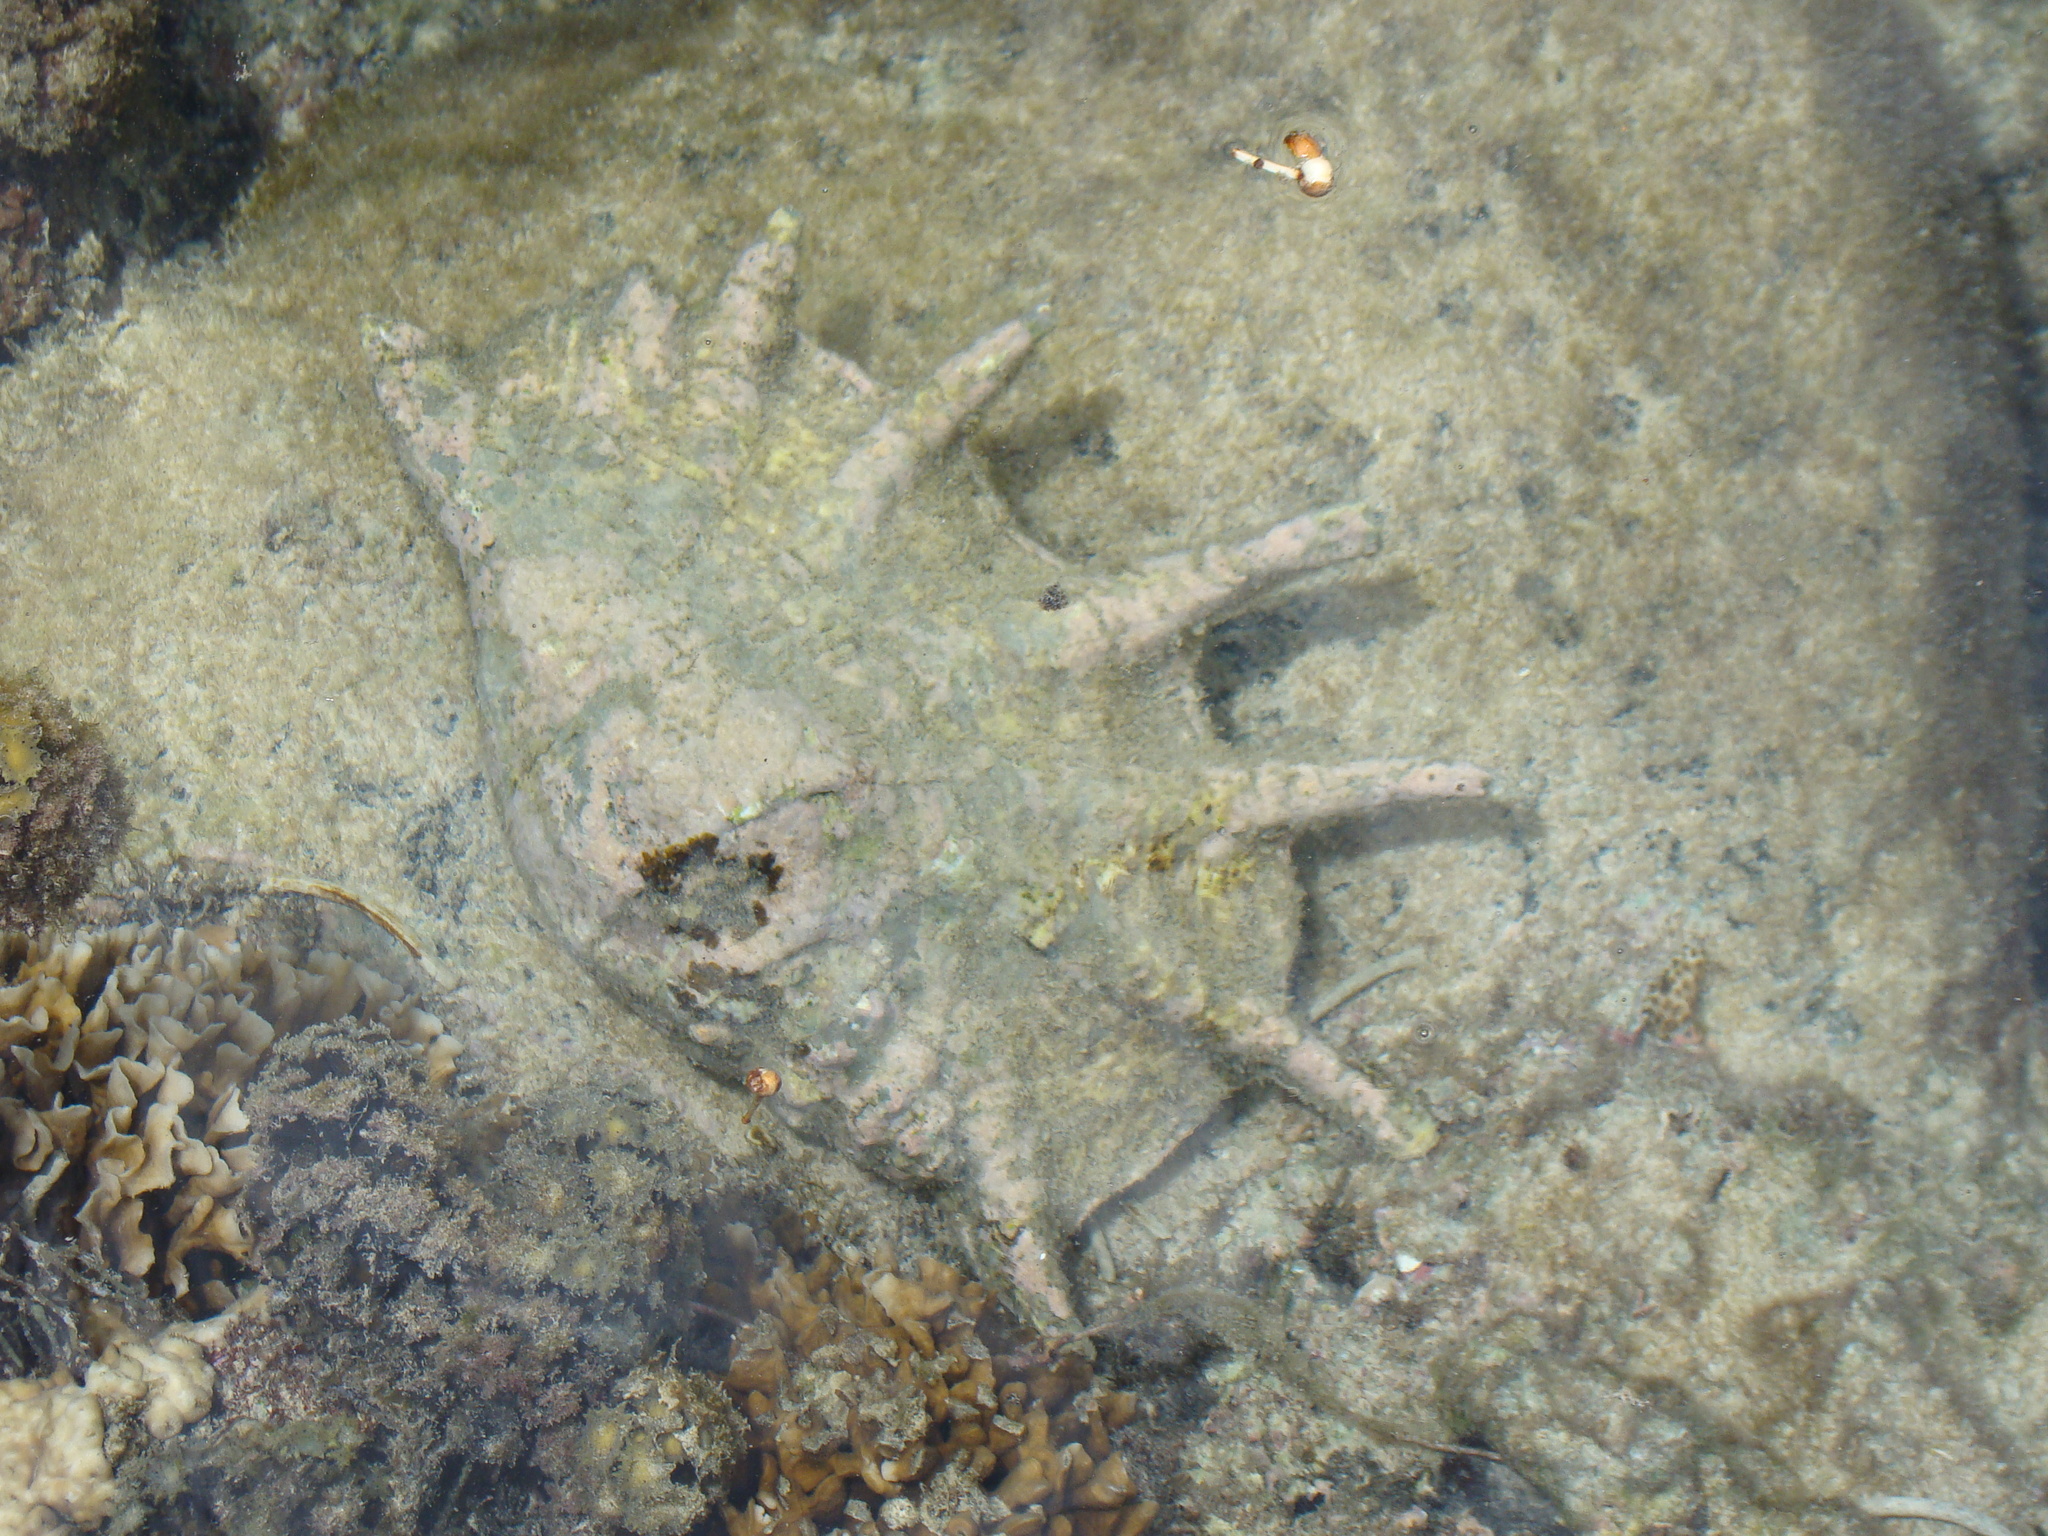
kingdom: Animalia
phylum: Mollusca
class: Gastropoda
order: Littorinimorpha
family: Strombidae
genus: Lambis
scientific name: Lambis truncata
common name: Giant spider conch
